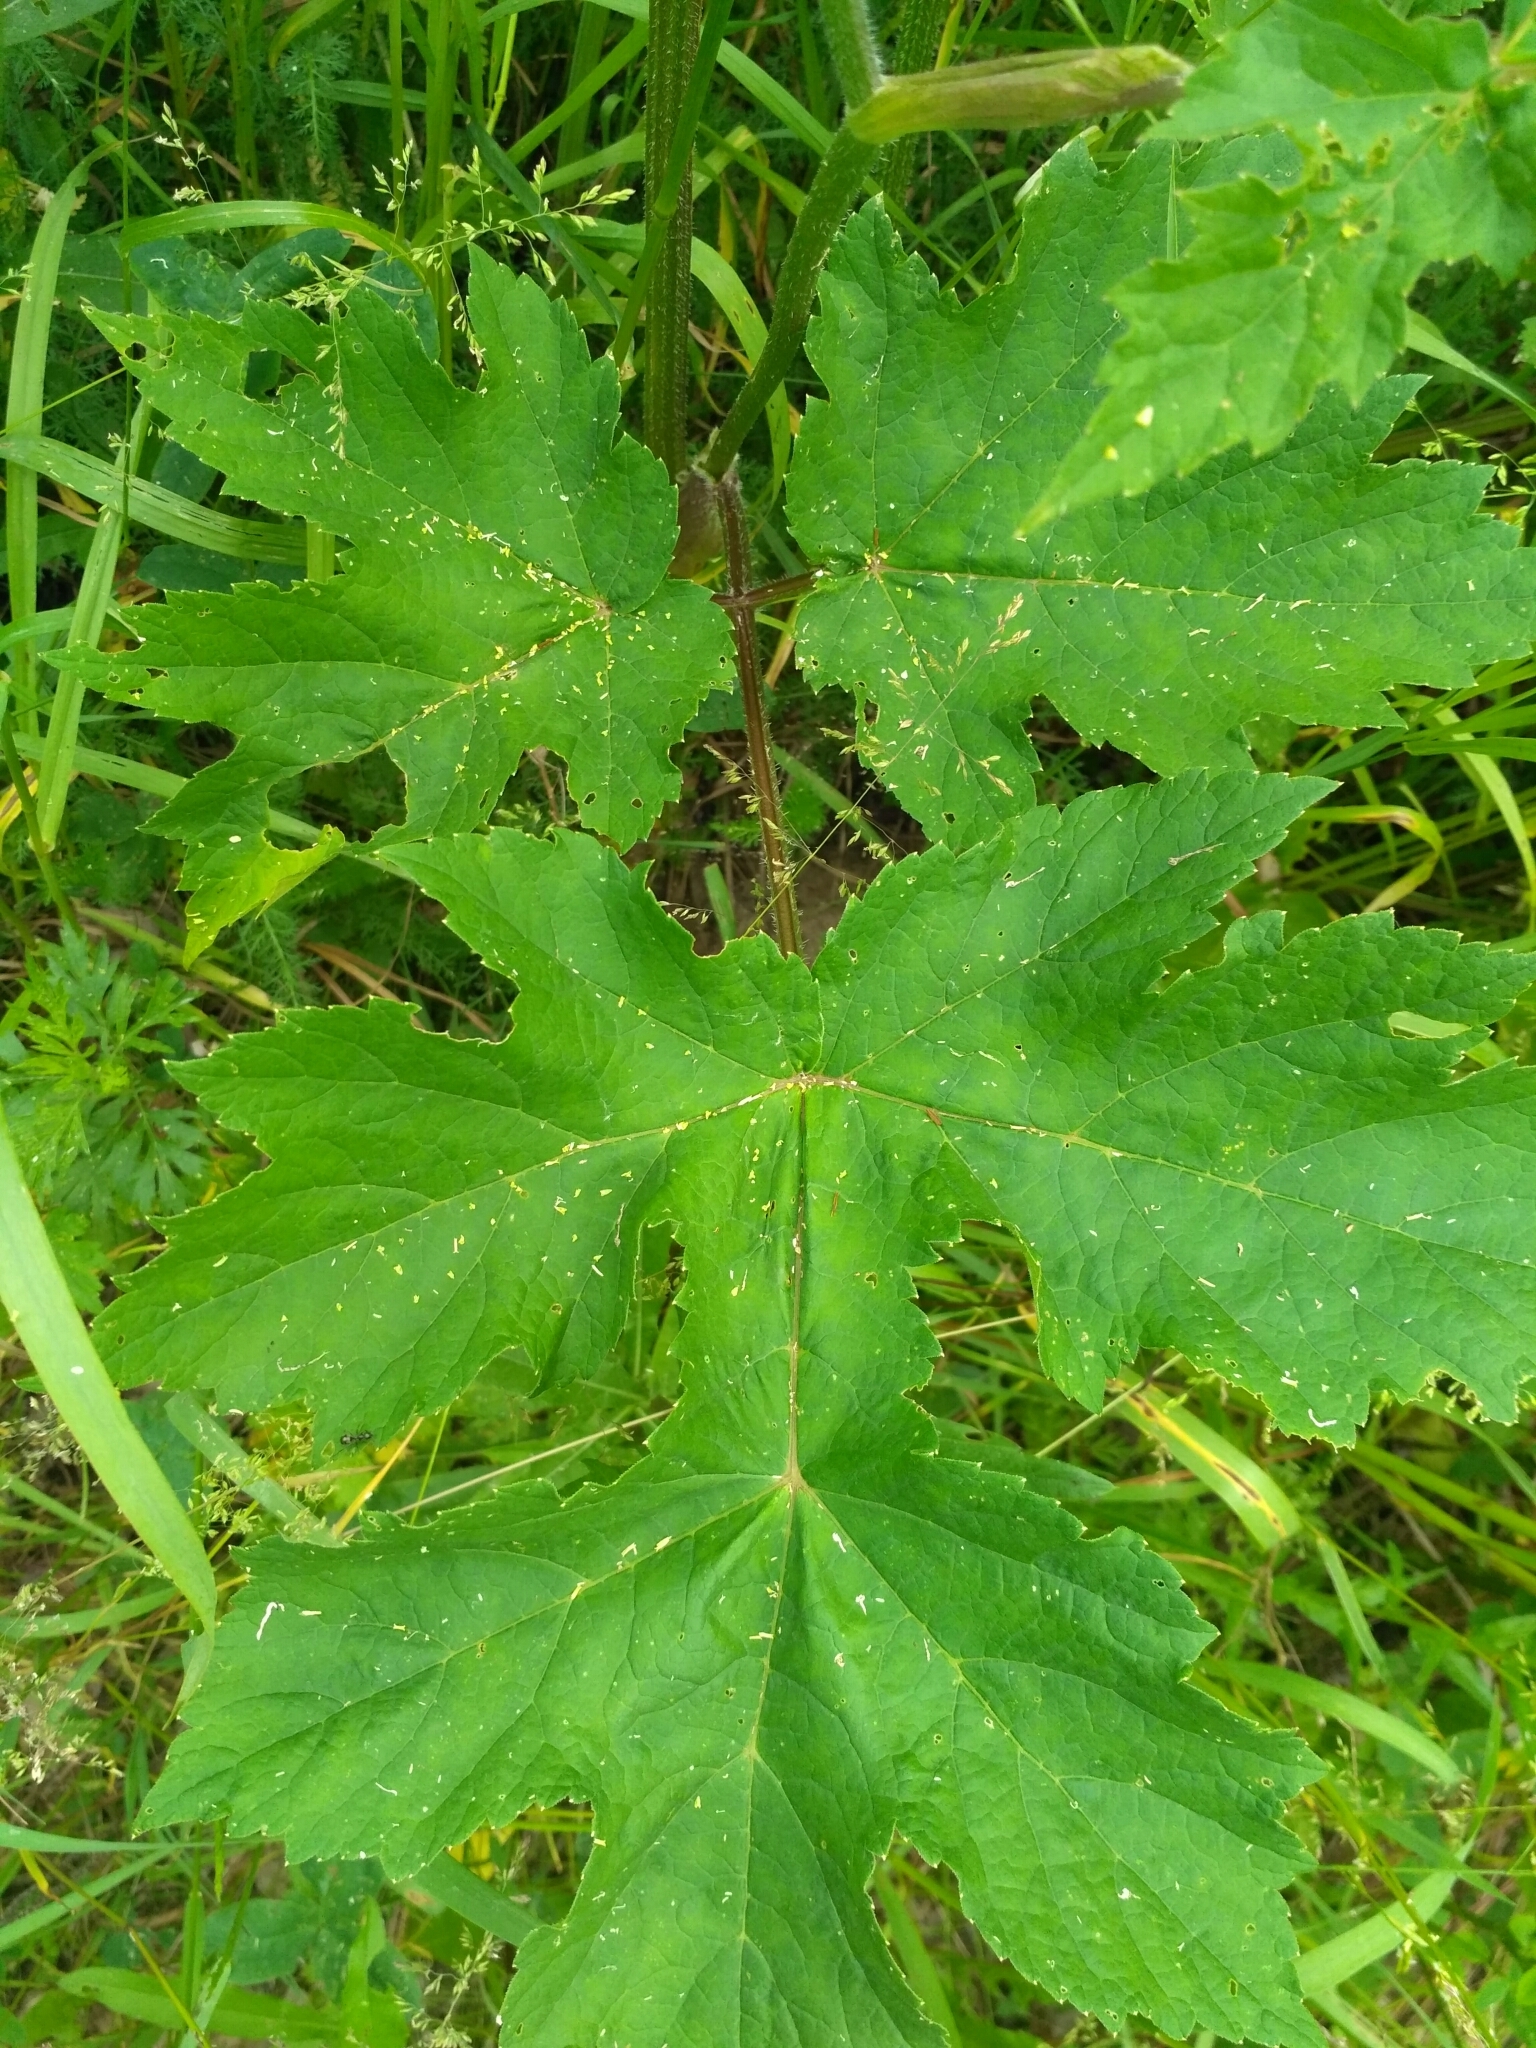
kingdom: Plantae
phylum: Tracheophyta
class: Magnoliopsida
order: Apiales
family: Apiaceae
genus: Heracleum
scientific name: Heracleum sphondylium
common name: Hogweed
